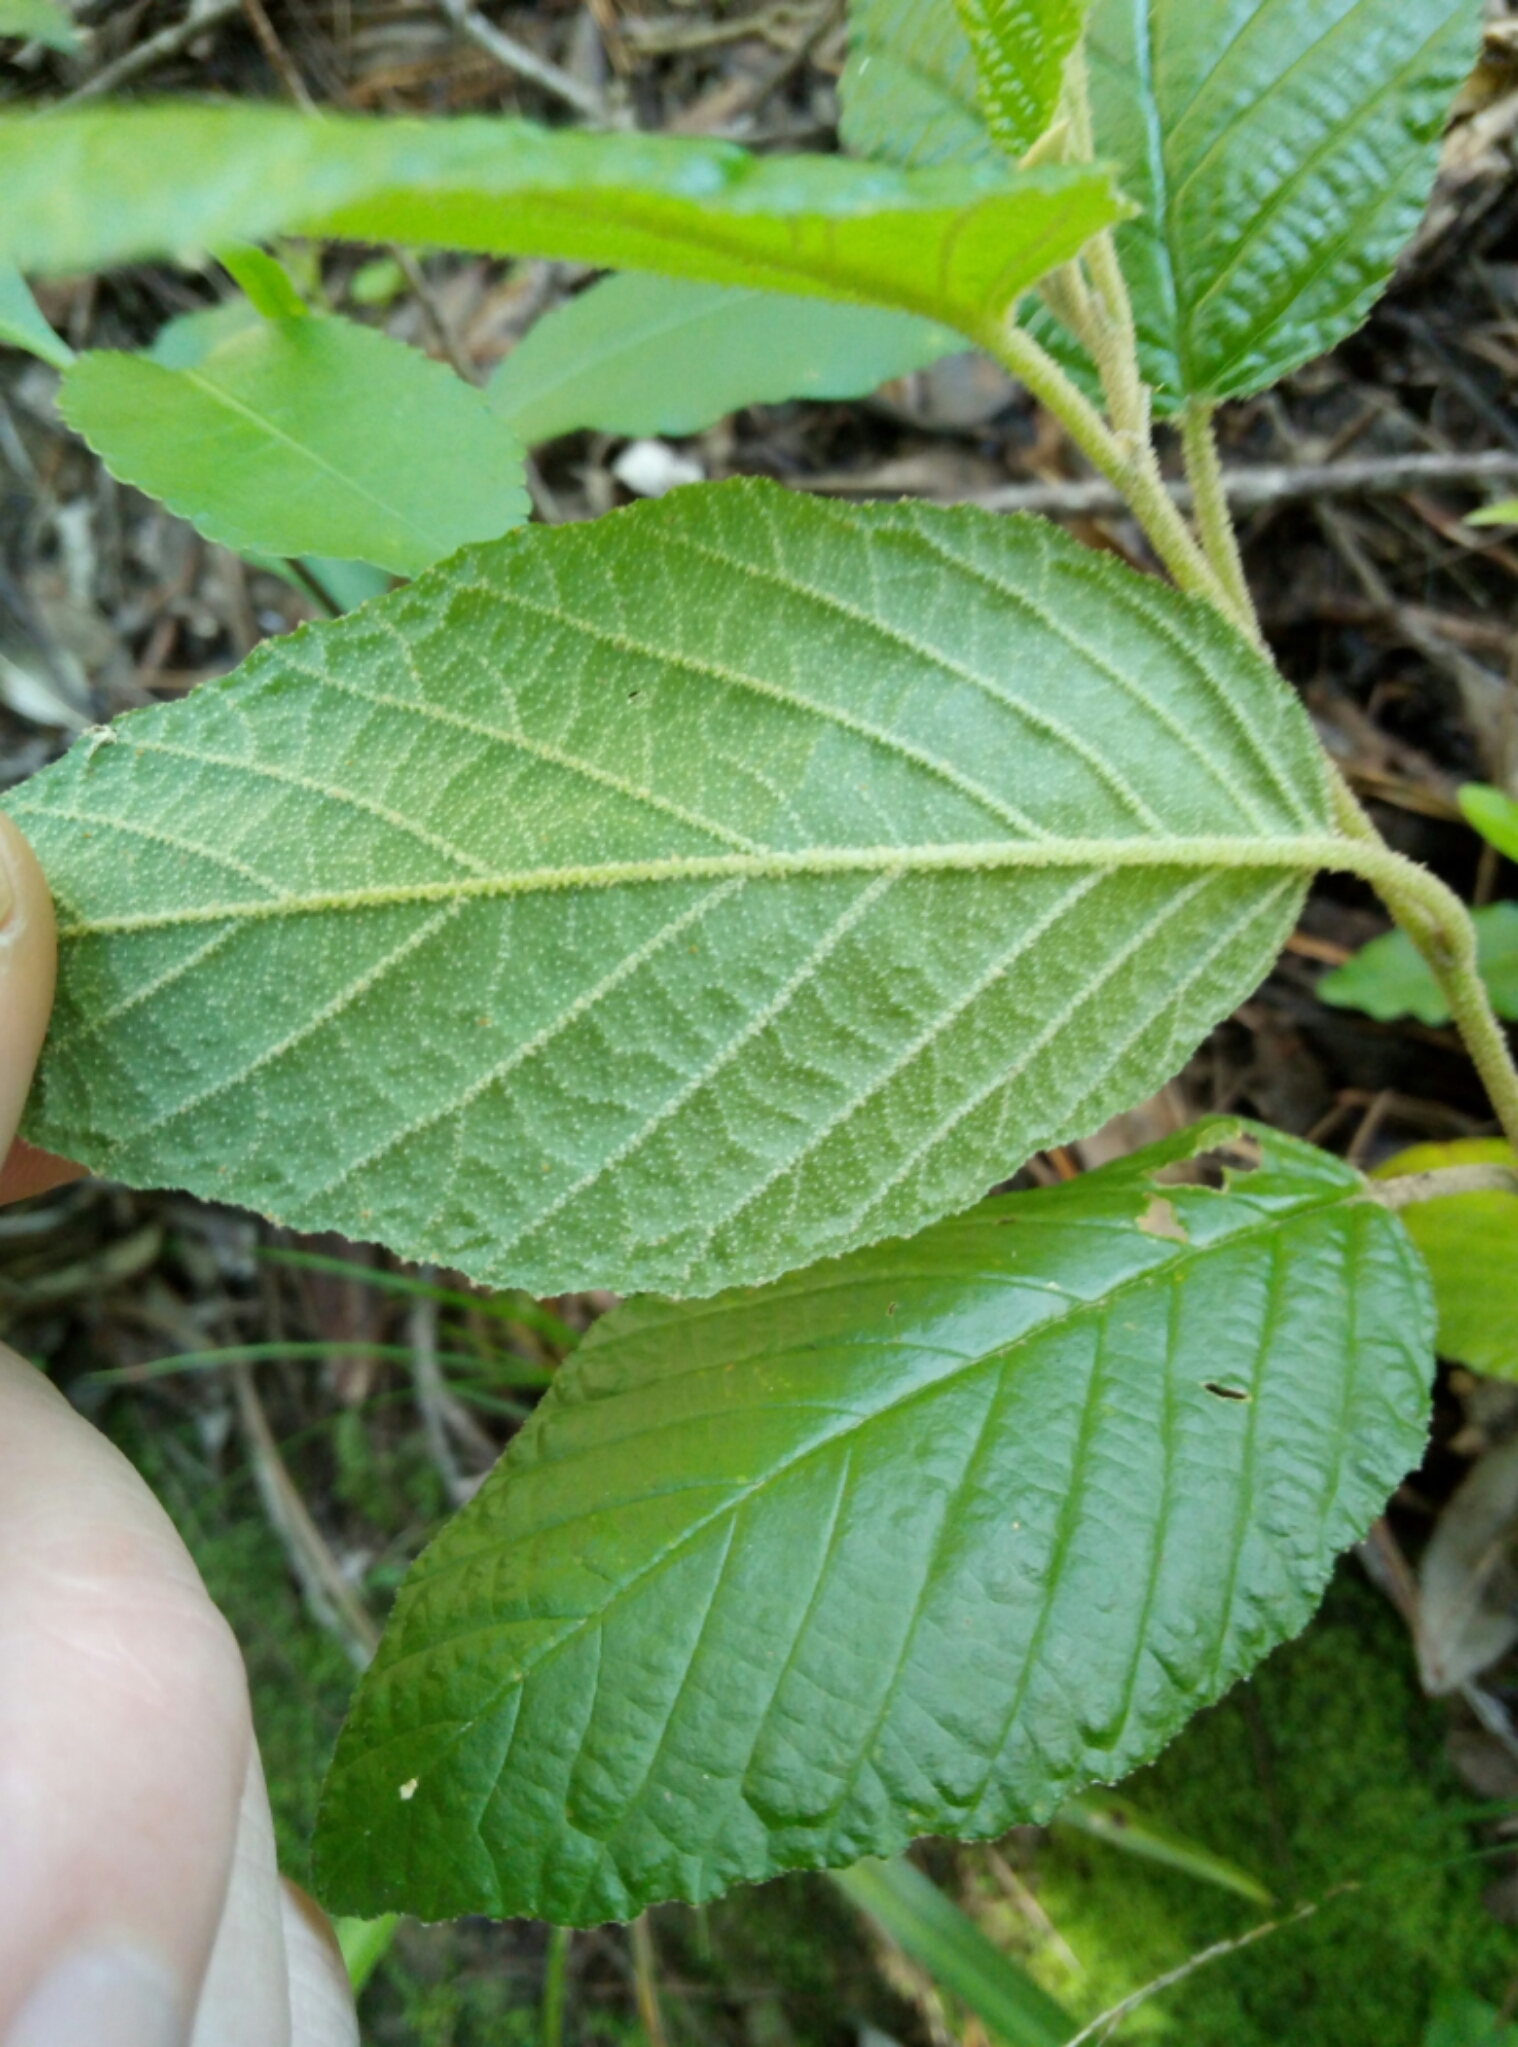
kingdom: Plantae
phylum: Tracheophyta
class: Magnoliopsida
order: Rosales
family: Rhamnaceae
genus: Pomaderris
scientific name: Pomaderris aspera
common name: Hazel pomaderris
